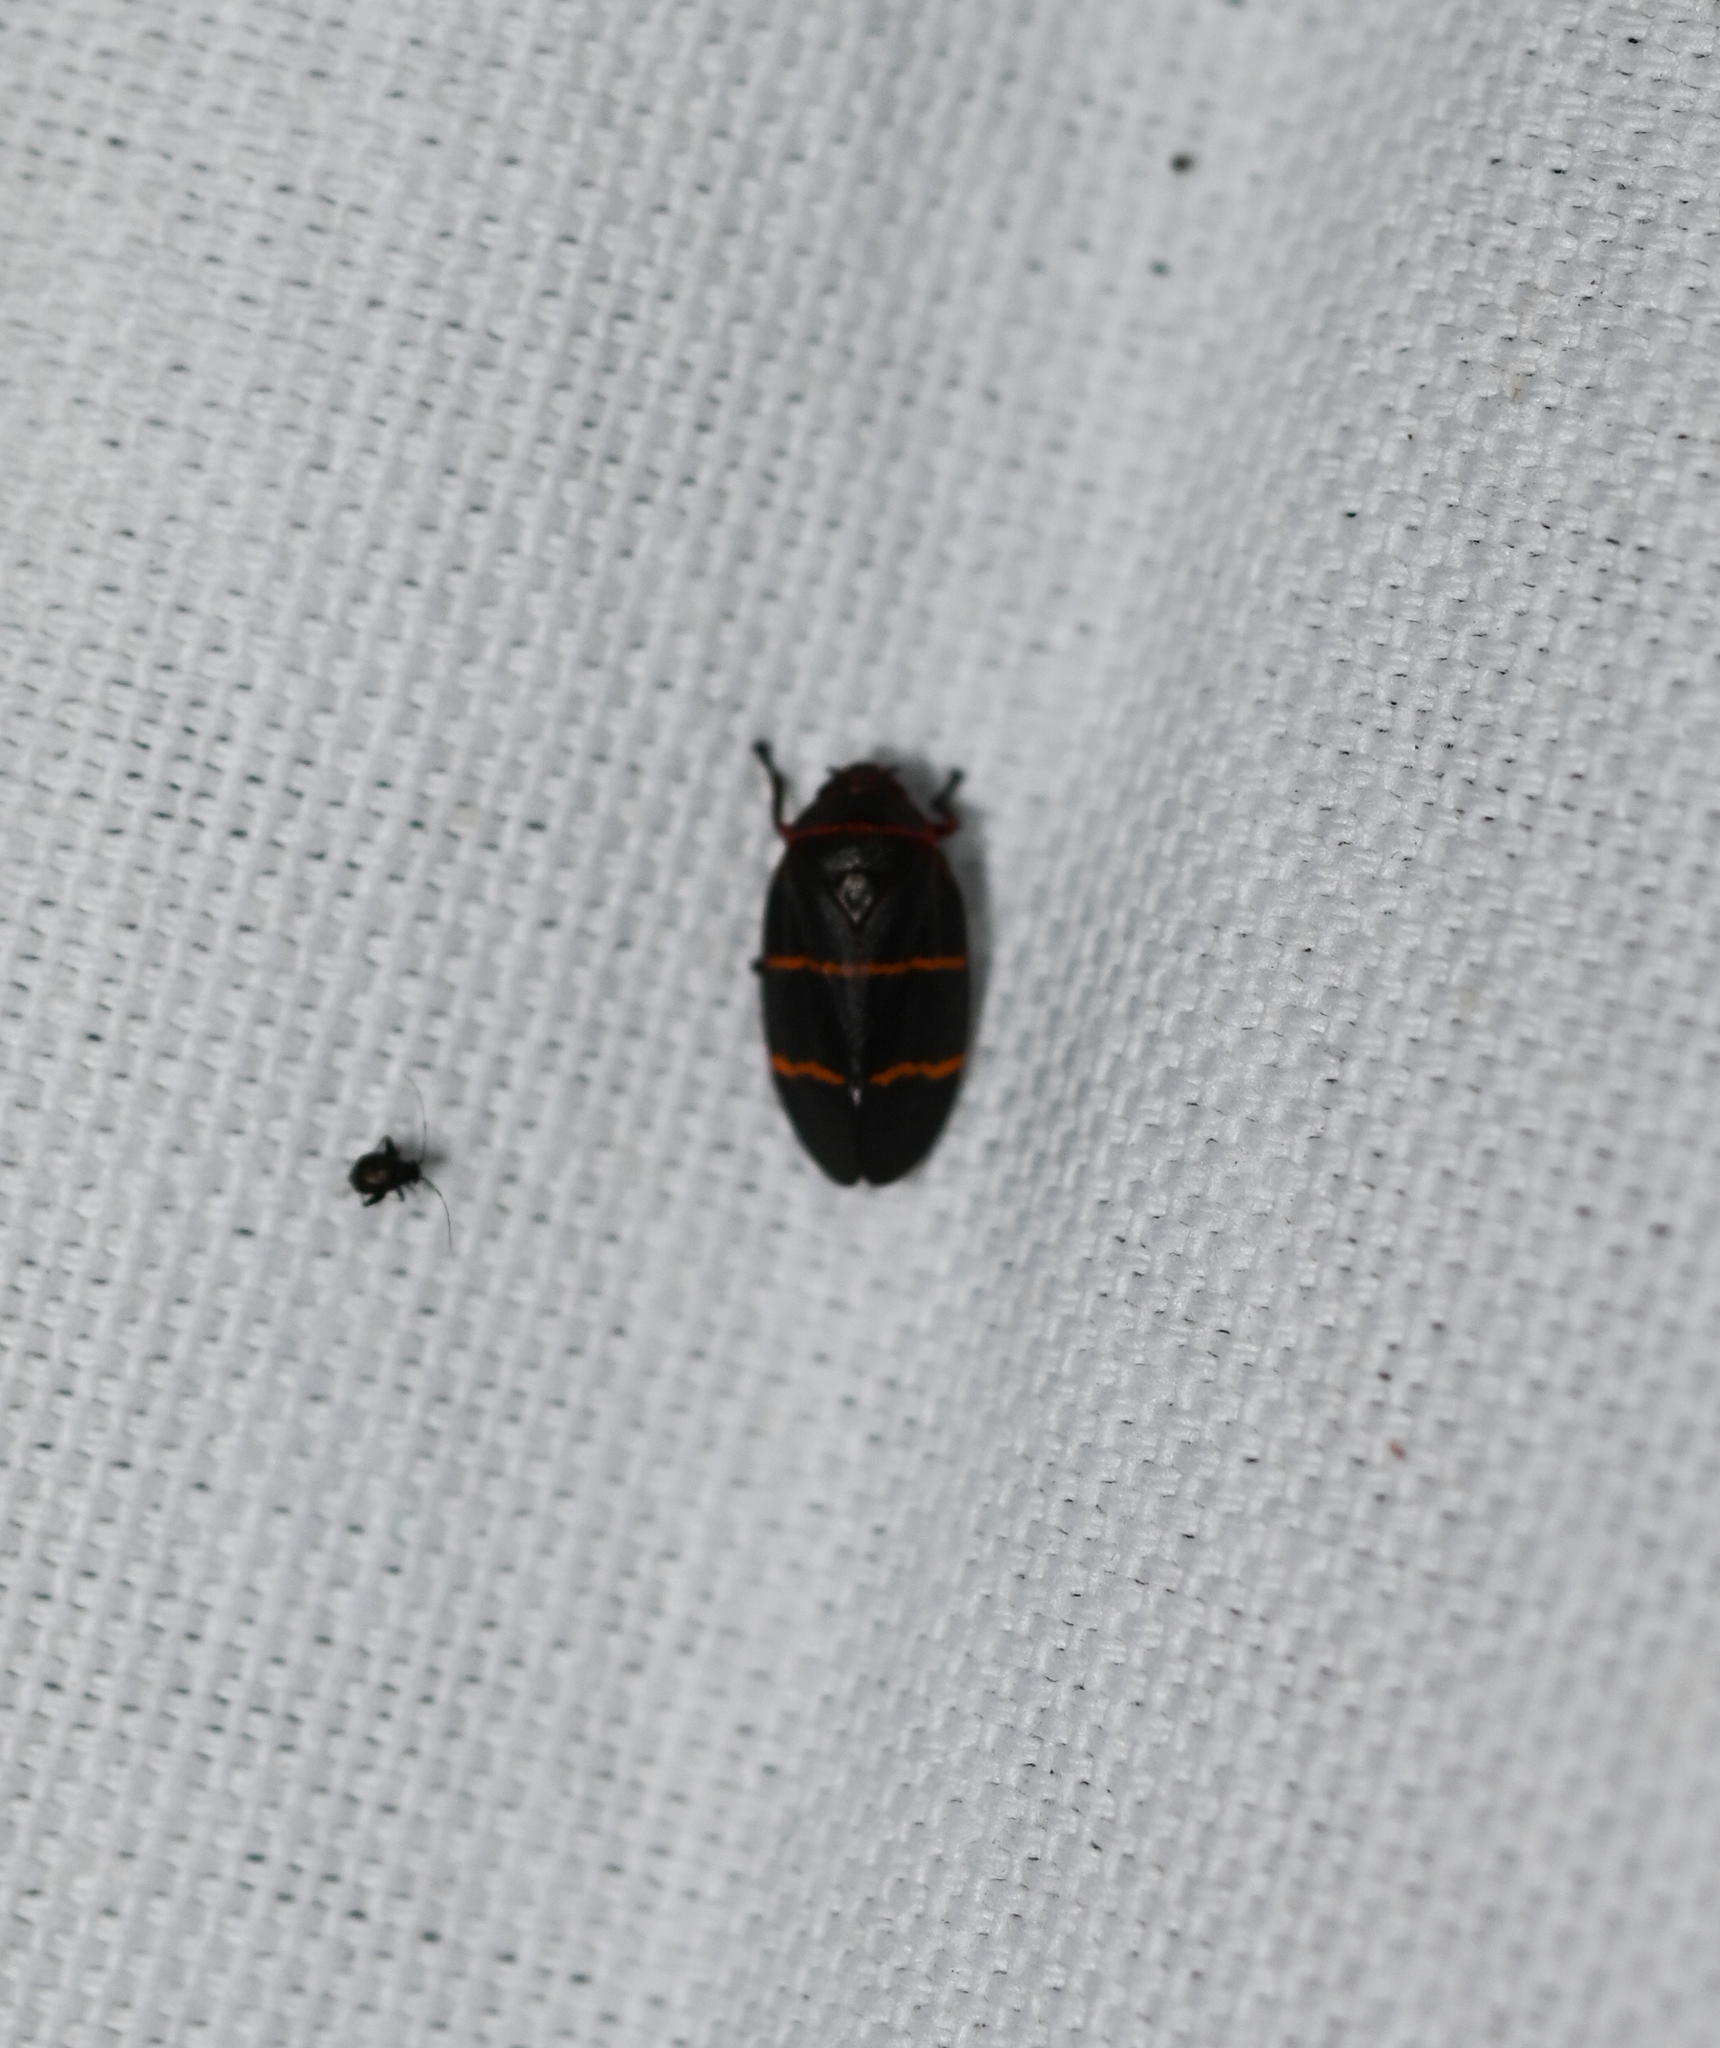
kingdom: Animalia
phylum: Arthropoda
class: Insecta
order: Hemiptera
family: Cercopidae
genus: Prosapia
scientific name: Prosapia bicincta
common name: Twolined spittlebug
